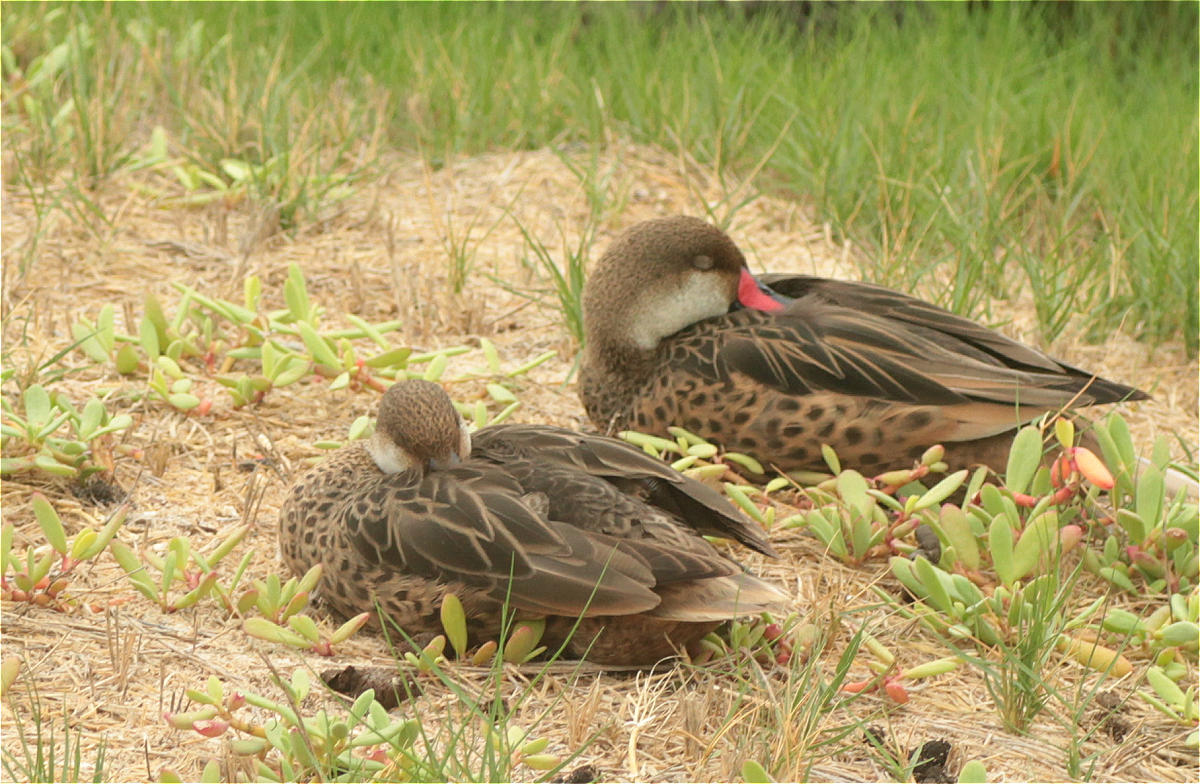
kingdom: Animalia
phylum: Chordata
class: Aves
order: Anseriformes
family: Anatidae
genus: Anas
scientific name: Anas bahamensis
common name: White-cheeked pintail
